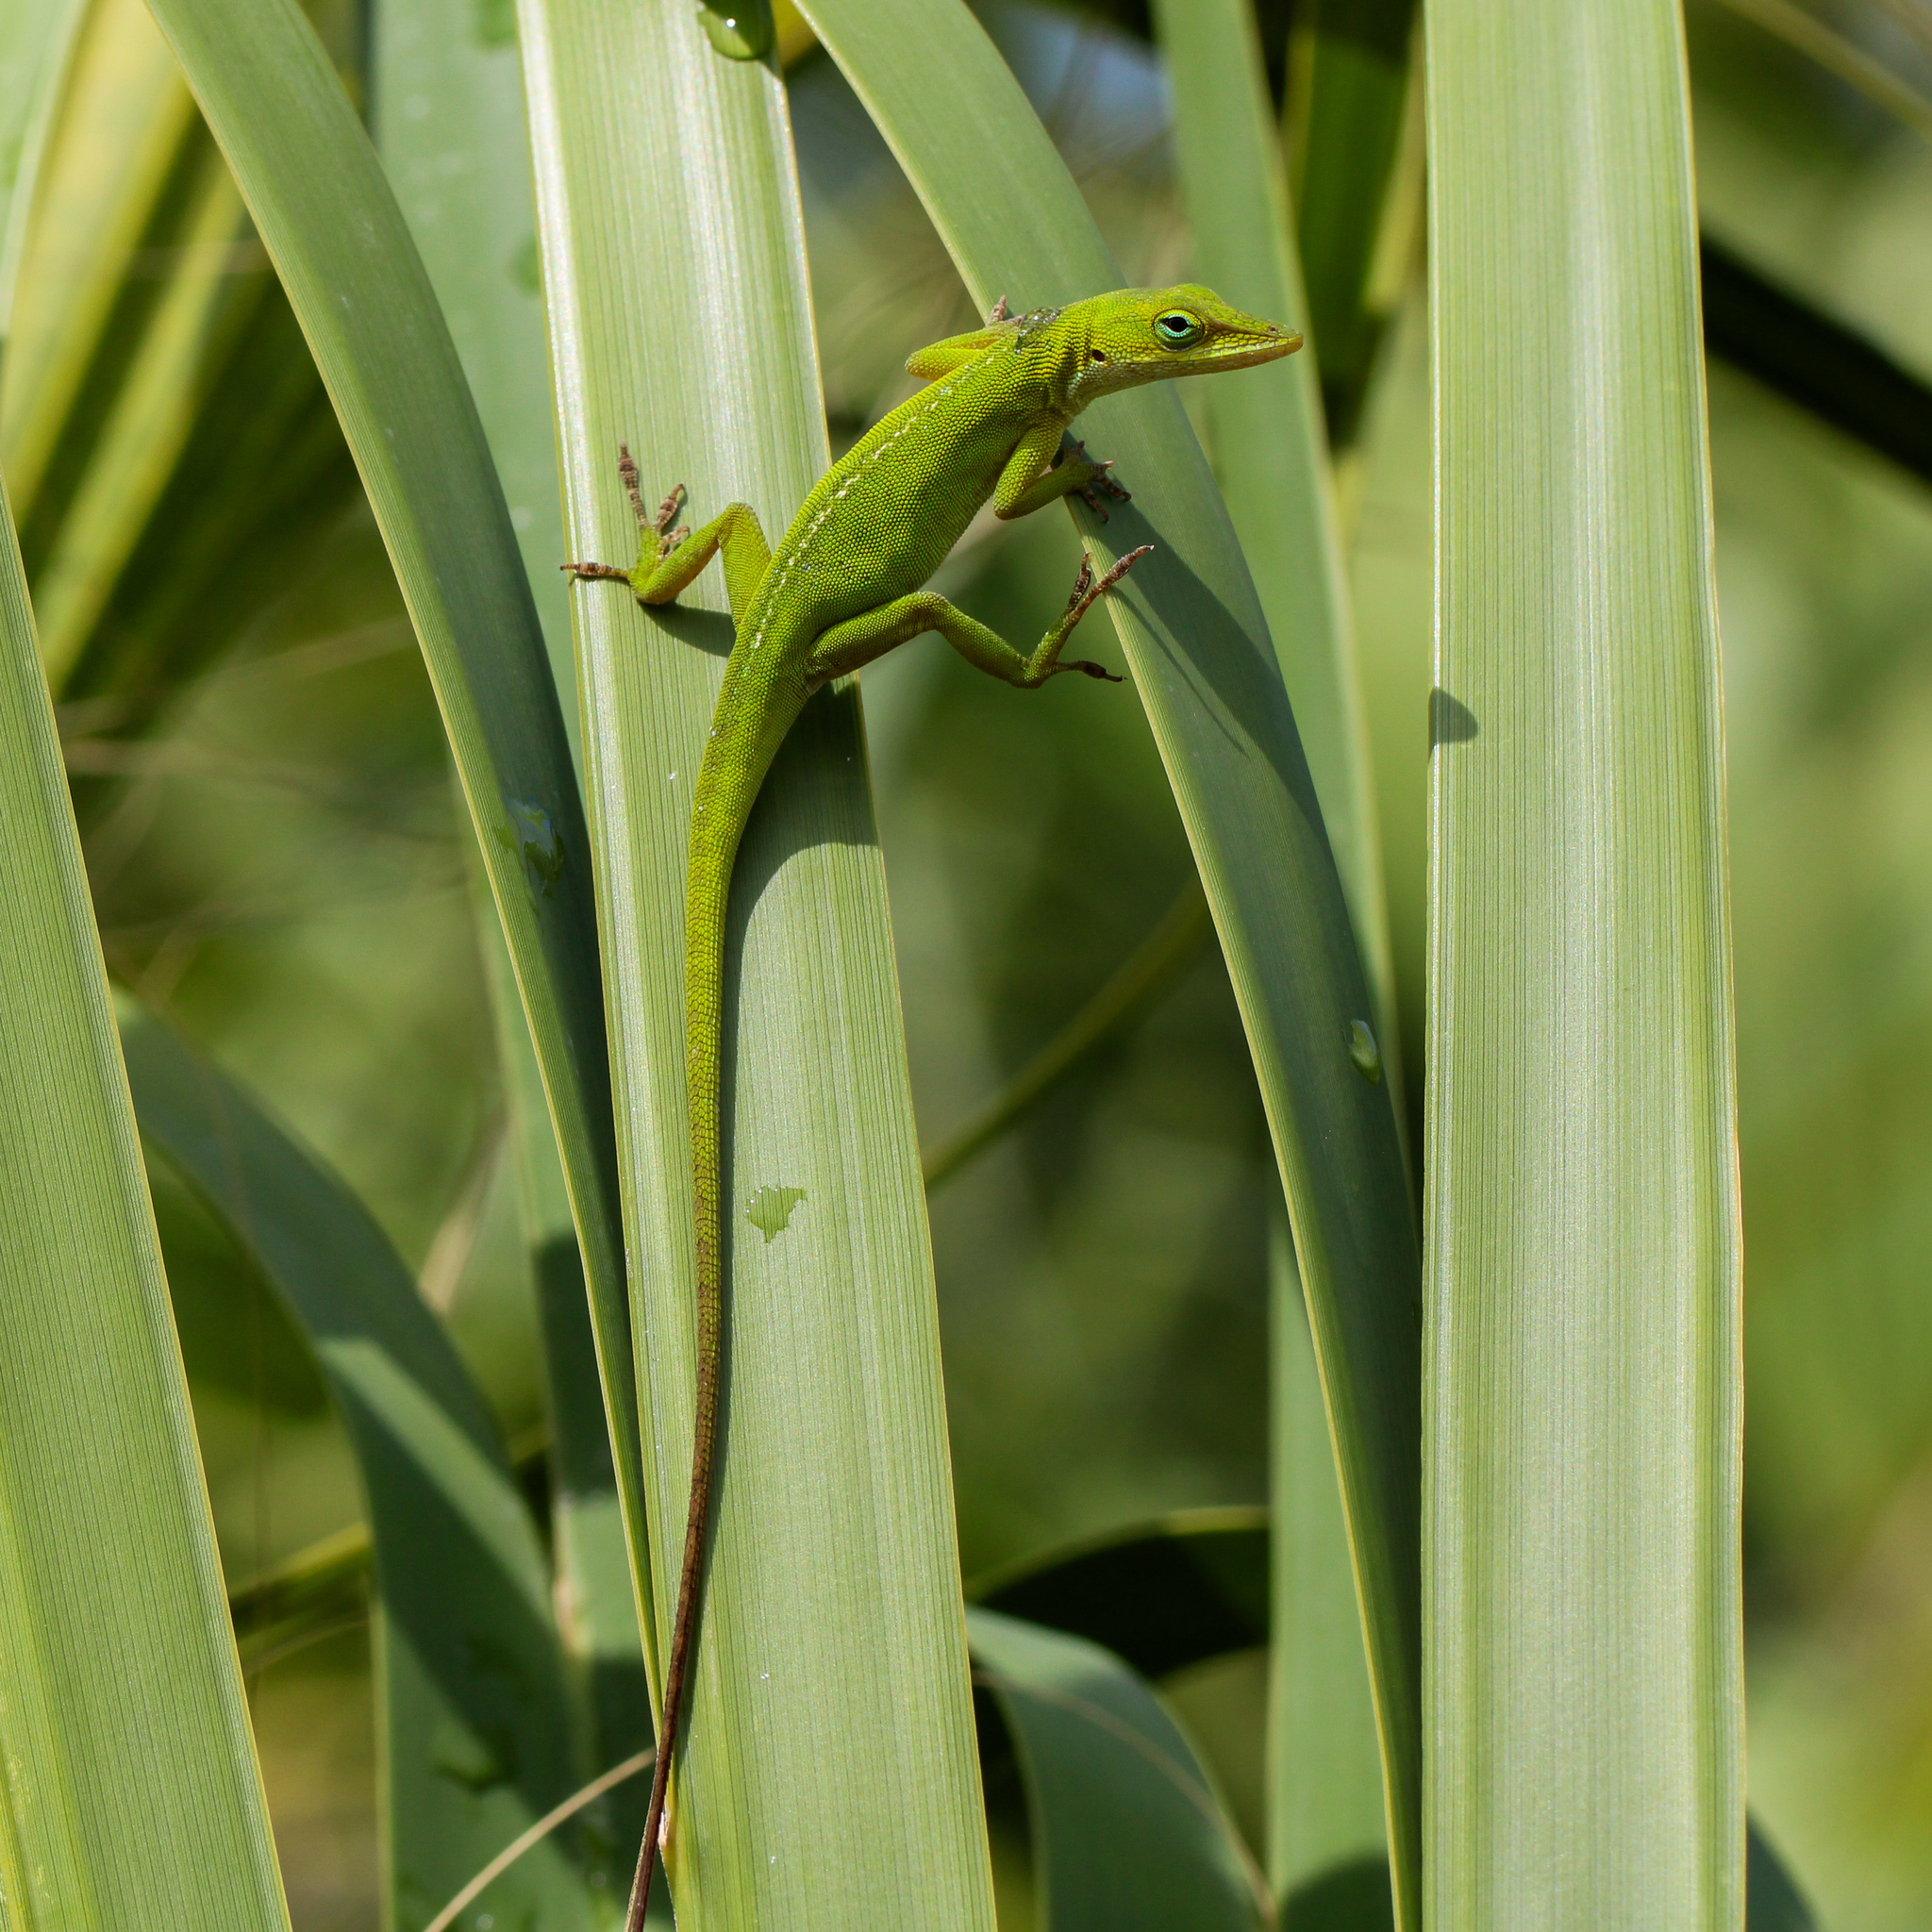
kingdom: Animalia
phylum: Chordata
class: Squamata
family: Dactyloidae
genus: Anolis
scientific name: Anolis carolinensis
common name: Green anole
